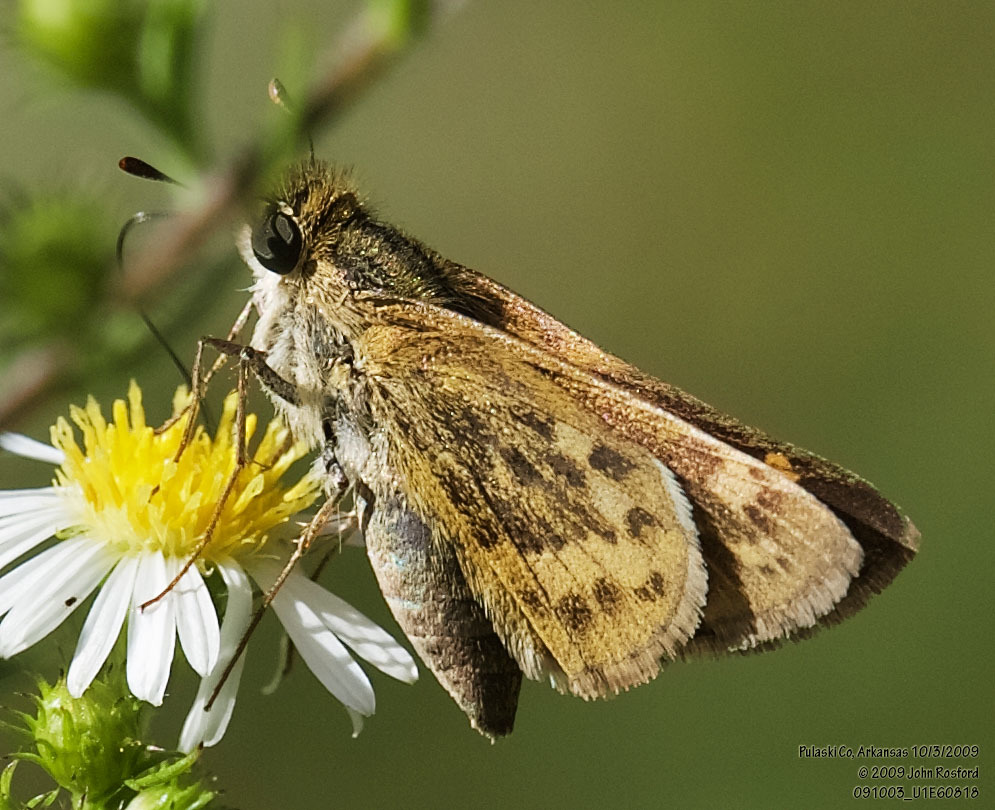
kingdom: Animalia
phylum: Arthropoda
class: Insecta
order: Lepidoptera
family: Hesperiidae
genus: Hylephila
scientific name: Hylephila phyleus
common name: Fiery skipper
